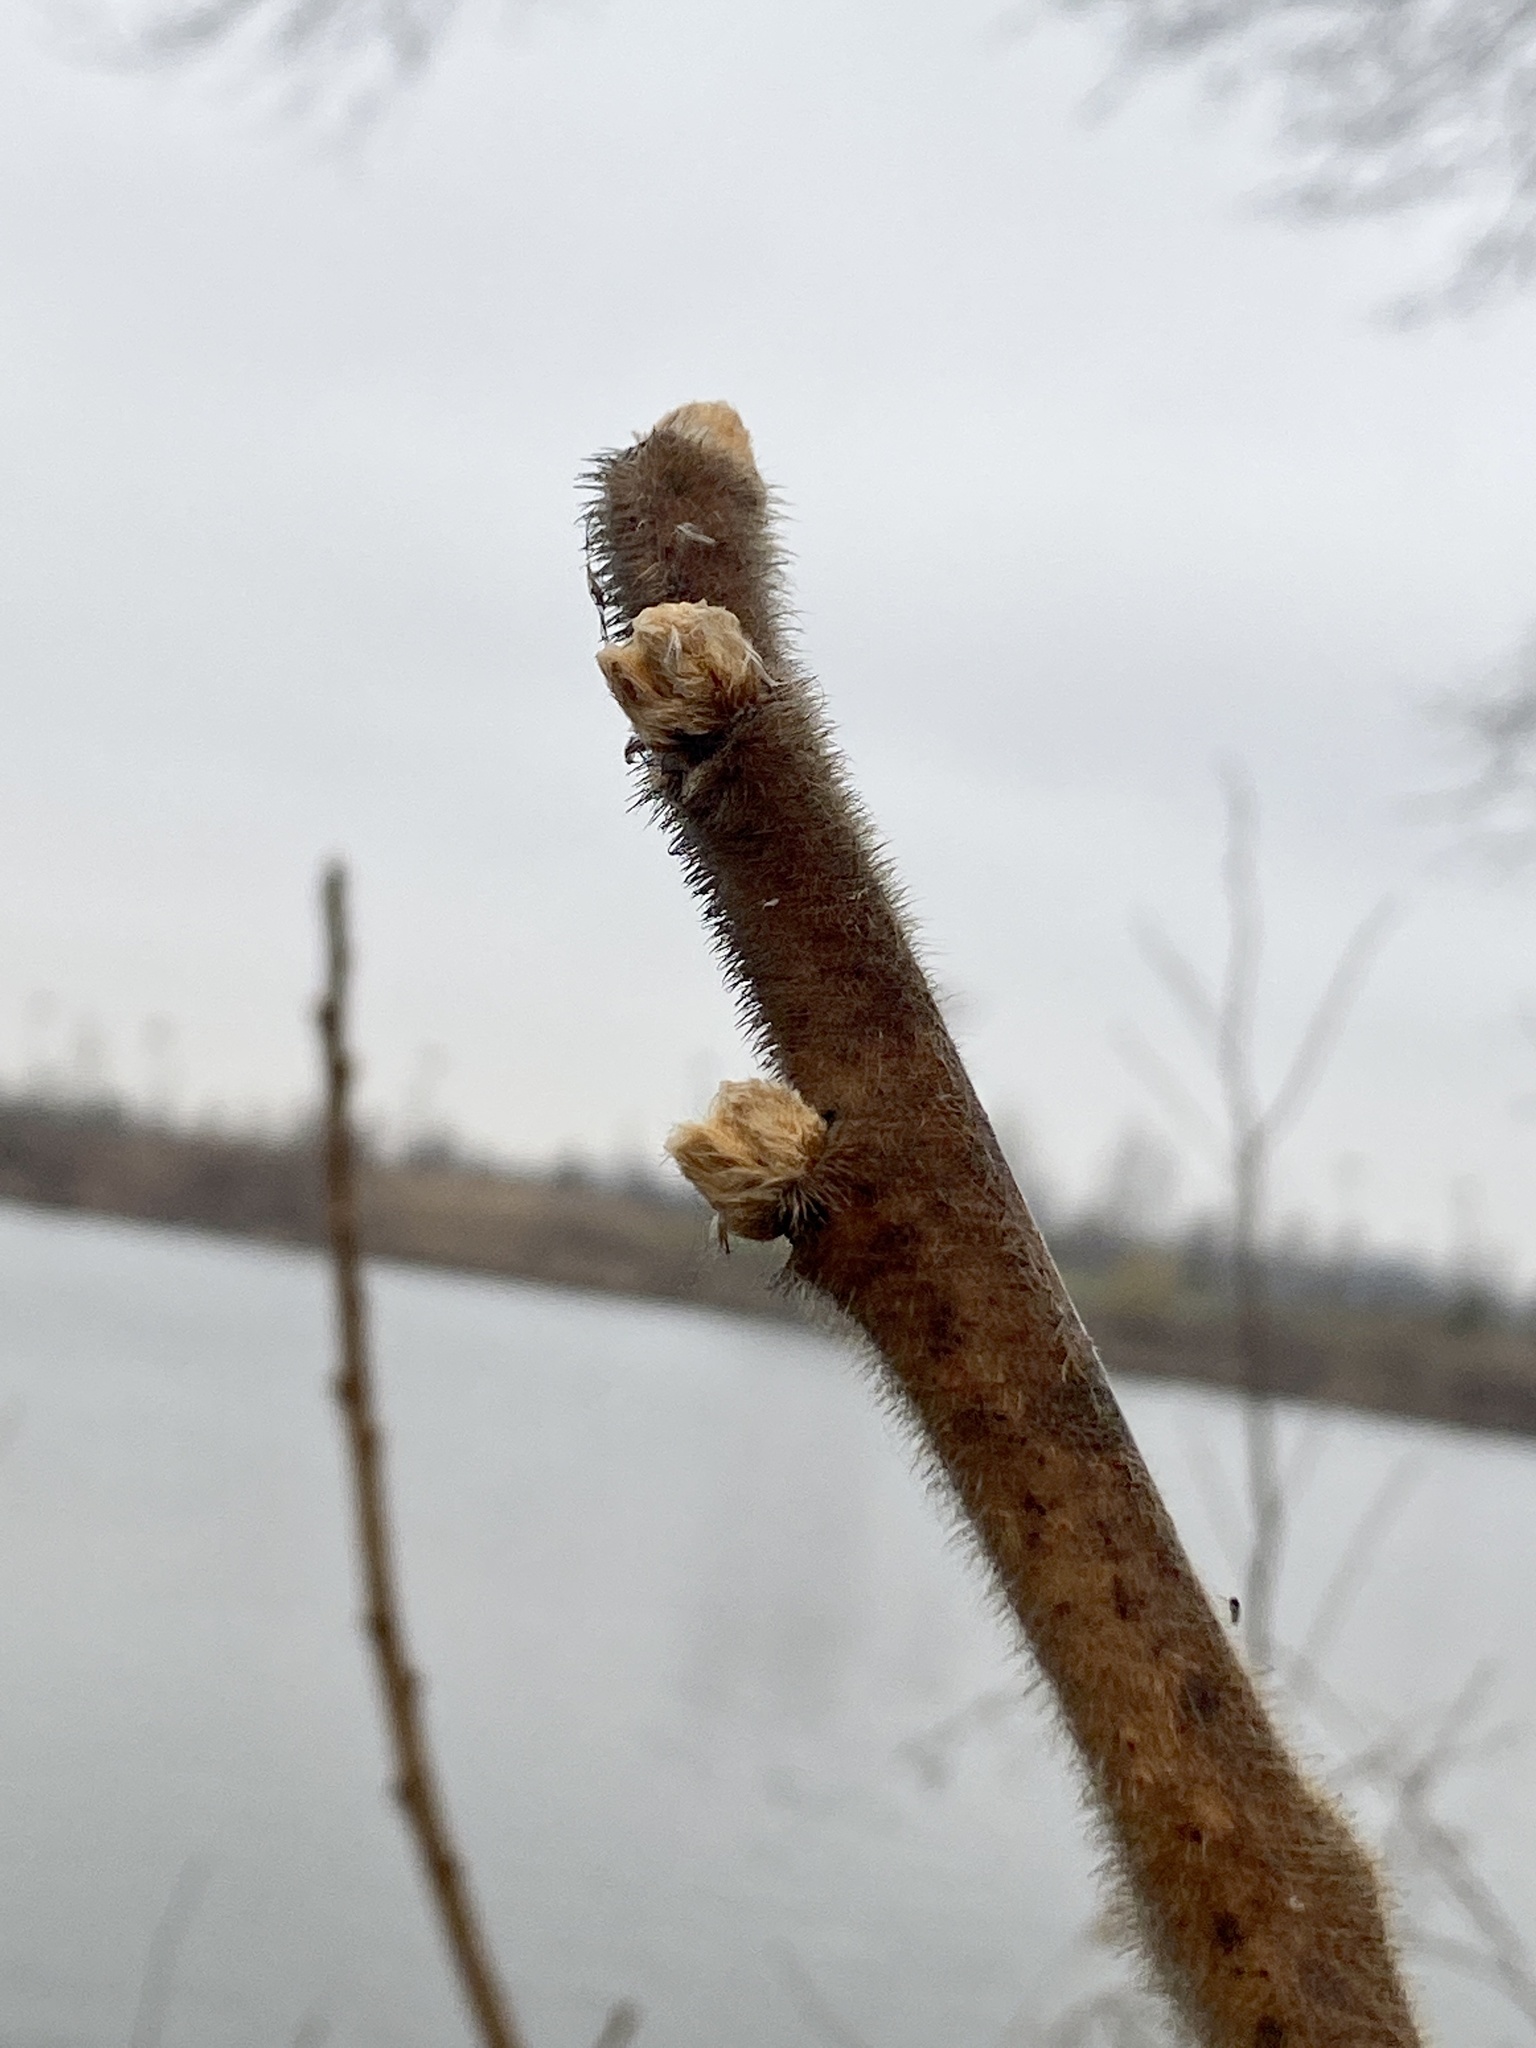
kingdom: Plantae
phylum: Tracheophyta
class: Magnoliopsida
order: Sapindales
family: Anacardiaceae
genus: Rhus
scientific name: Rhus typhina
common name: Staghorn sumac
